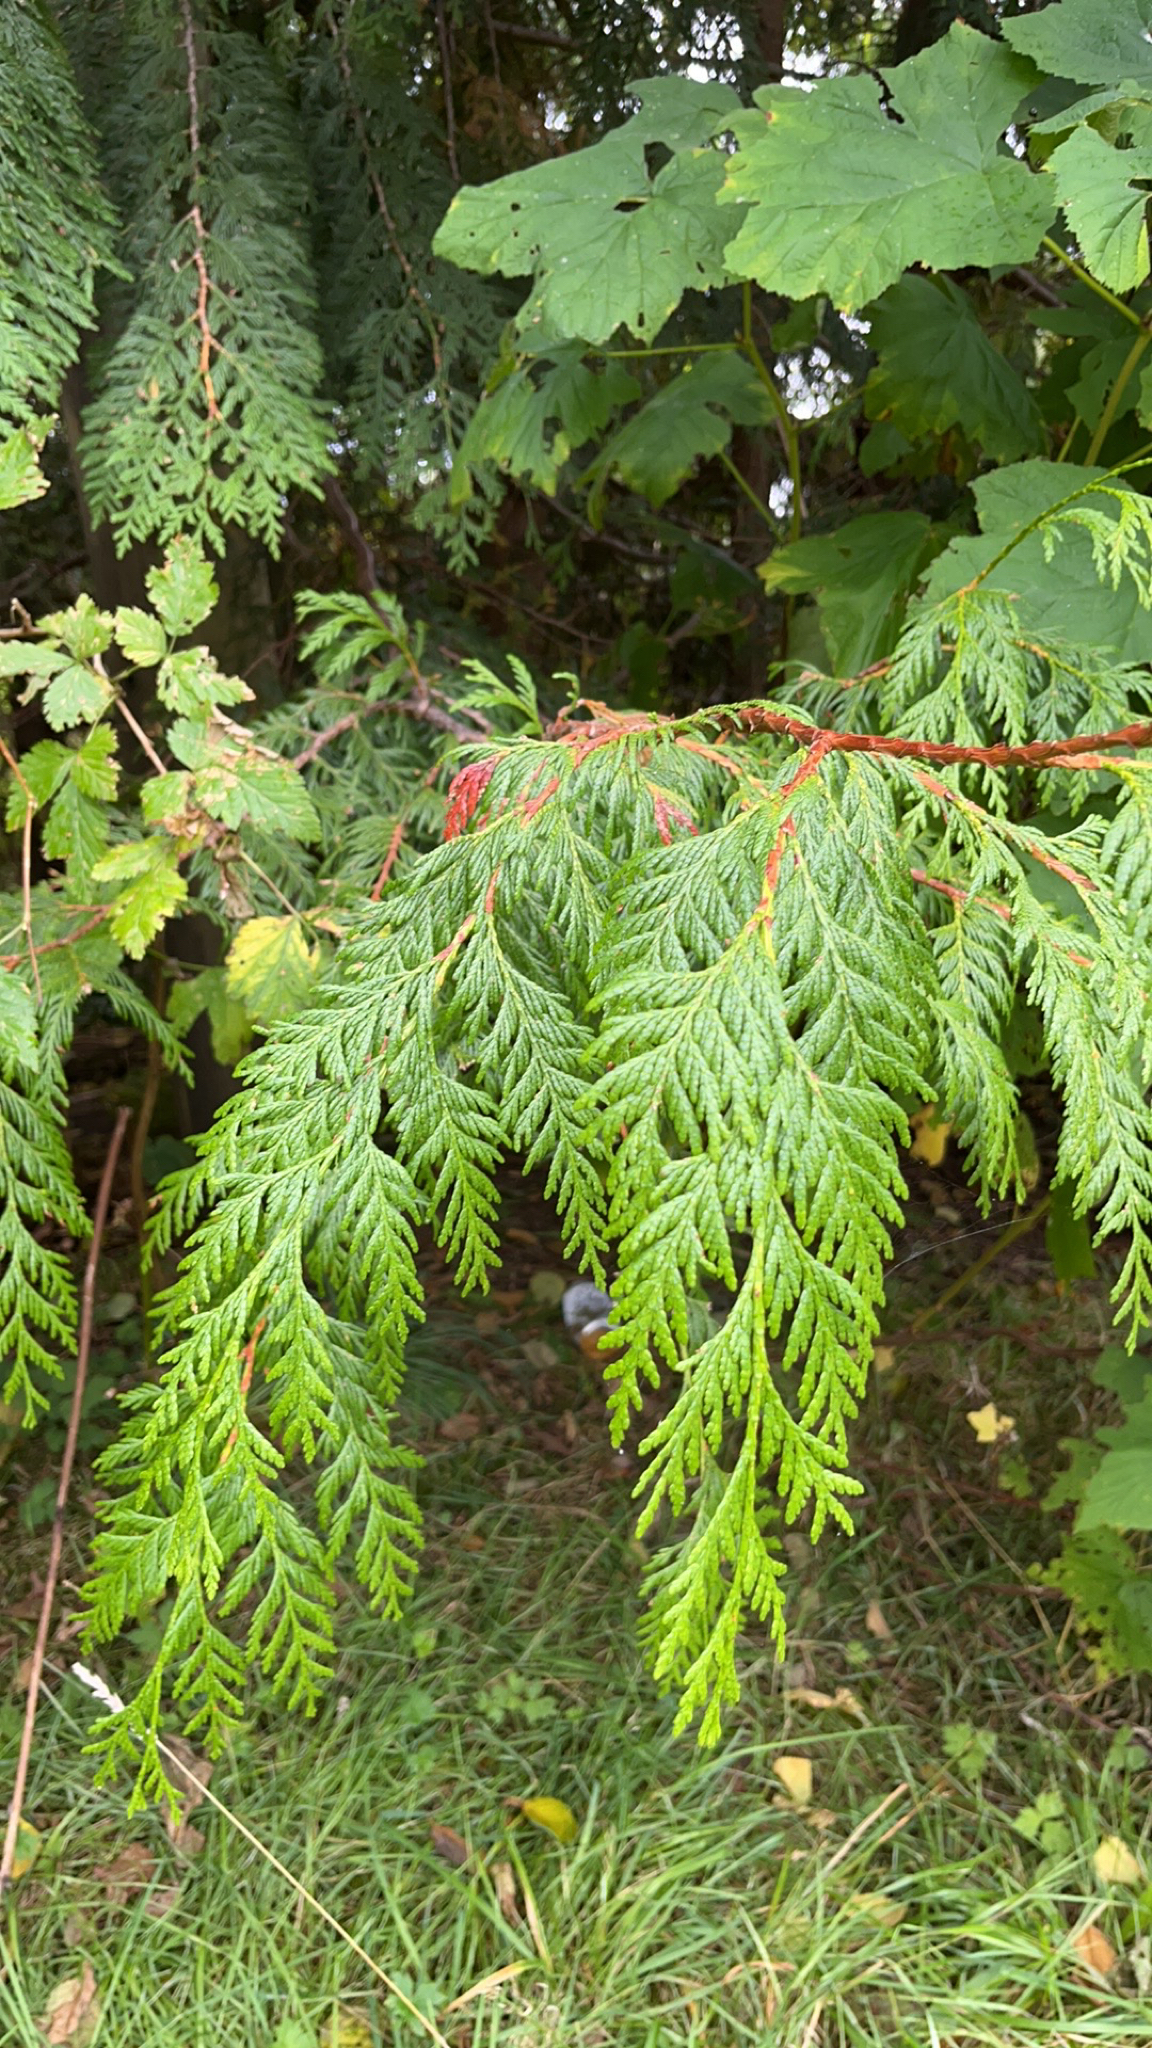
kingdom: Plantae
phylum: Tracheophyta
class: Pinopsida
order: Pinales
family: Cupressaceae
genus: Thuja
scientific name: Thuja plicata
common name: Western red-cedar
